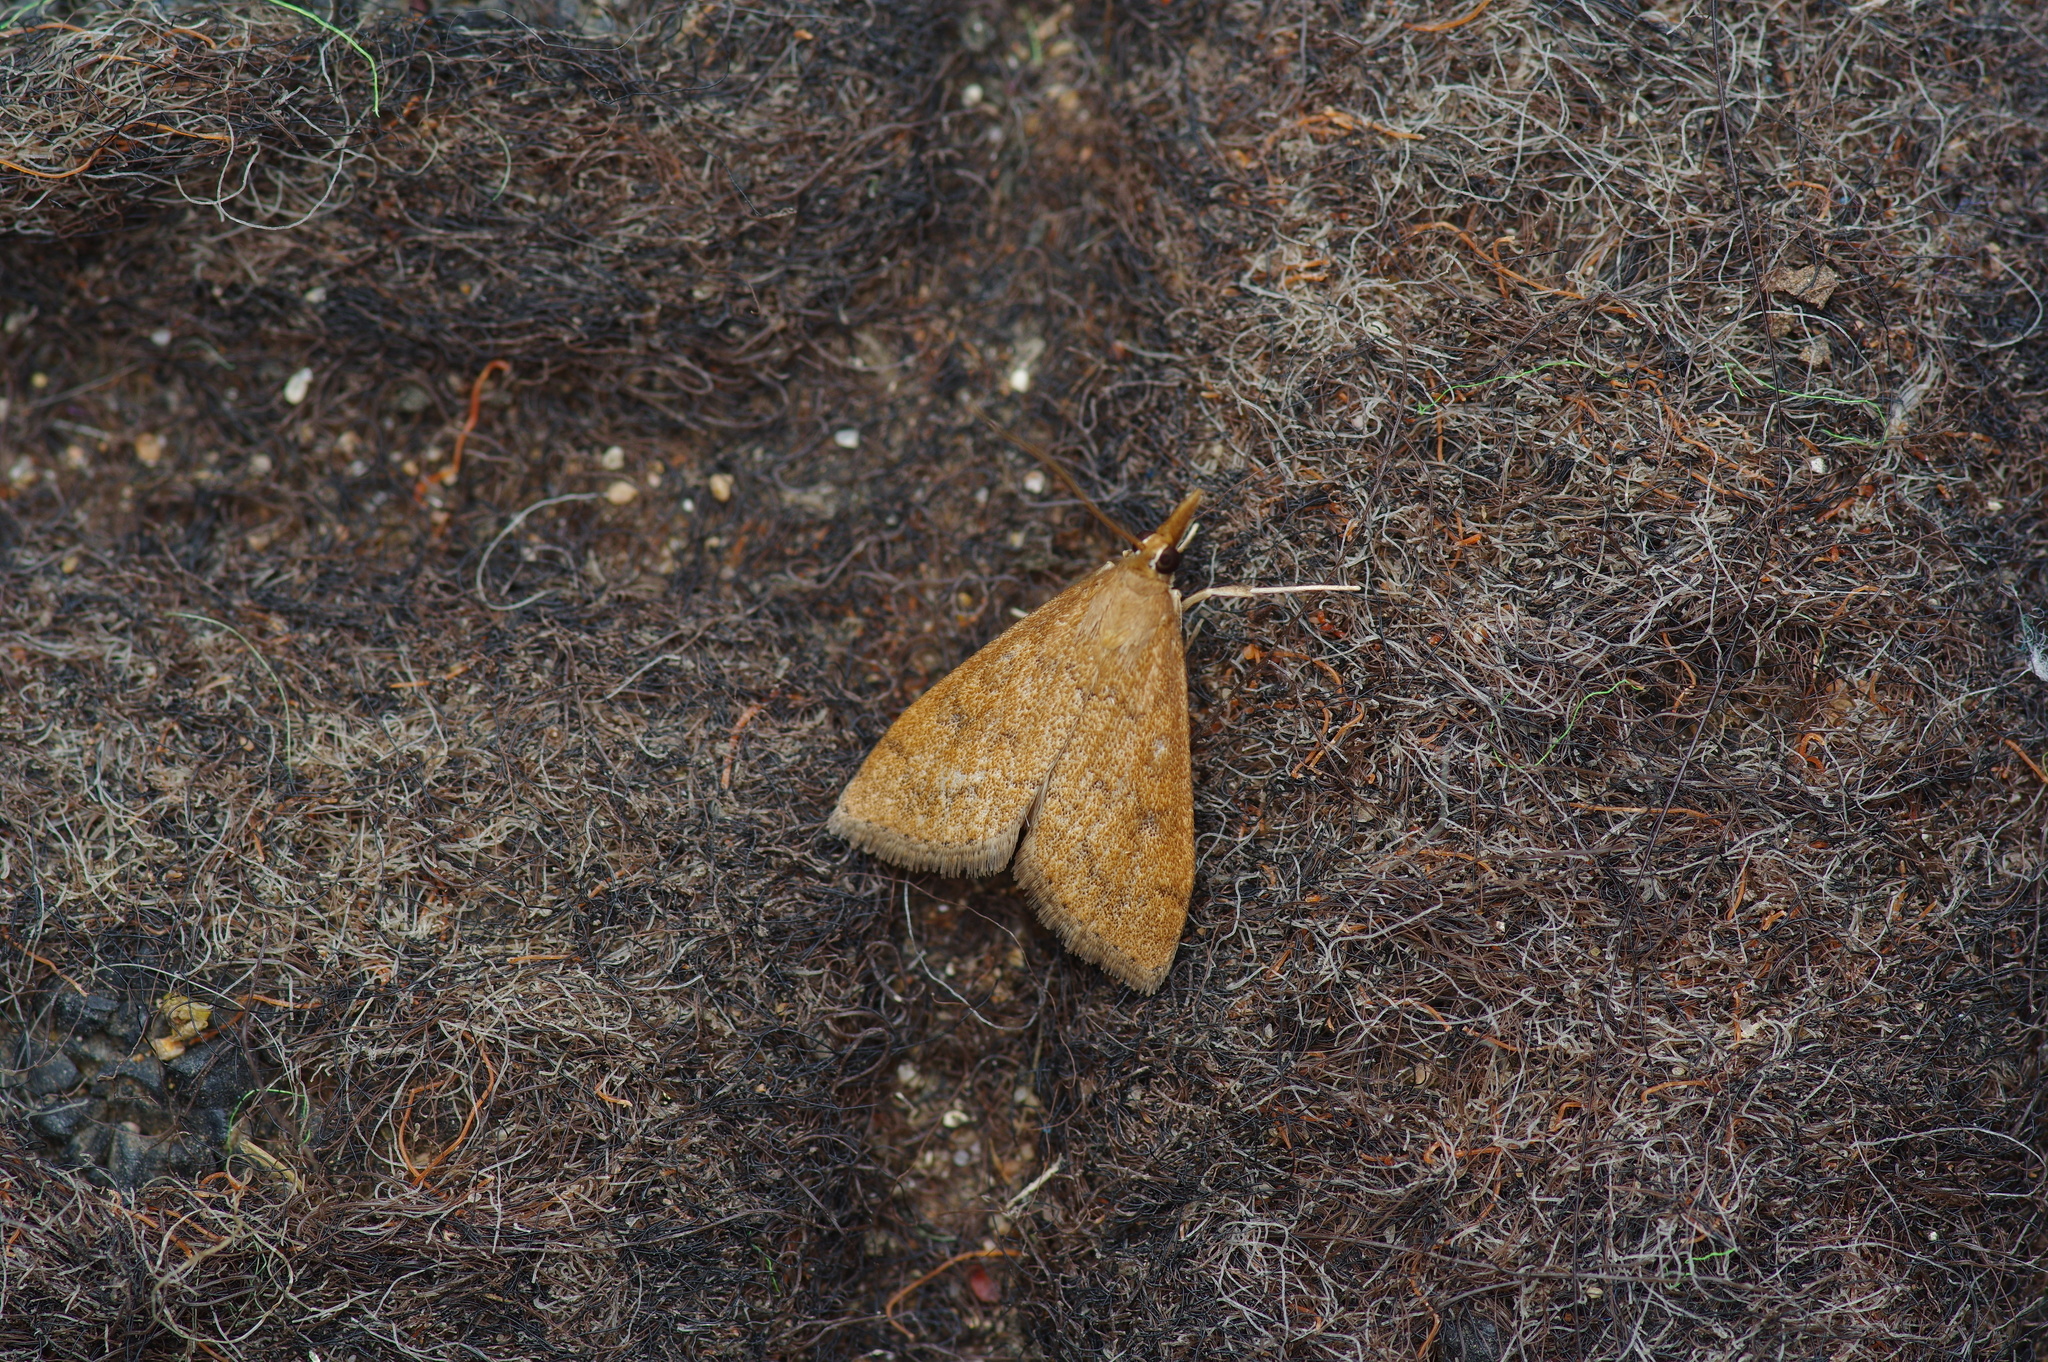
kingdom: Animalia
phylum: Arthropoda
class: Insecta
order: Lepidoptera
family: Crambidae
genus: Udea
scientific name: Udea rubigalis
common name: Celery leaftier moth
